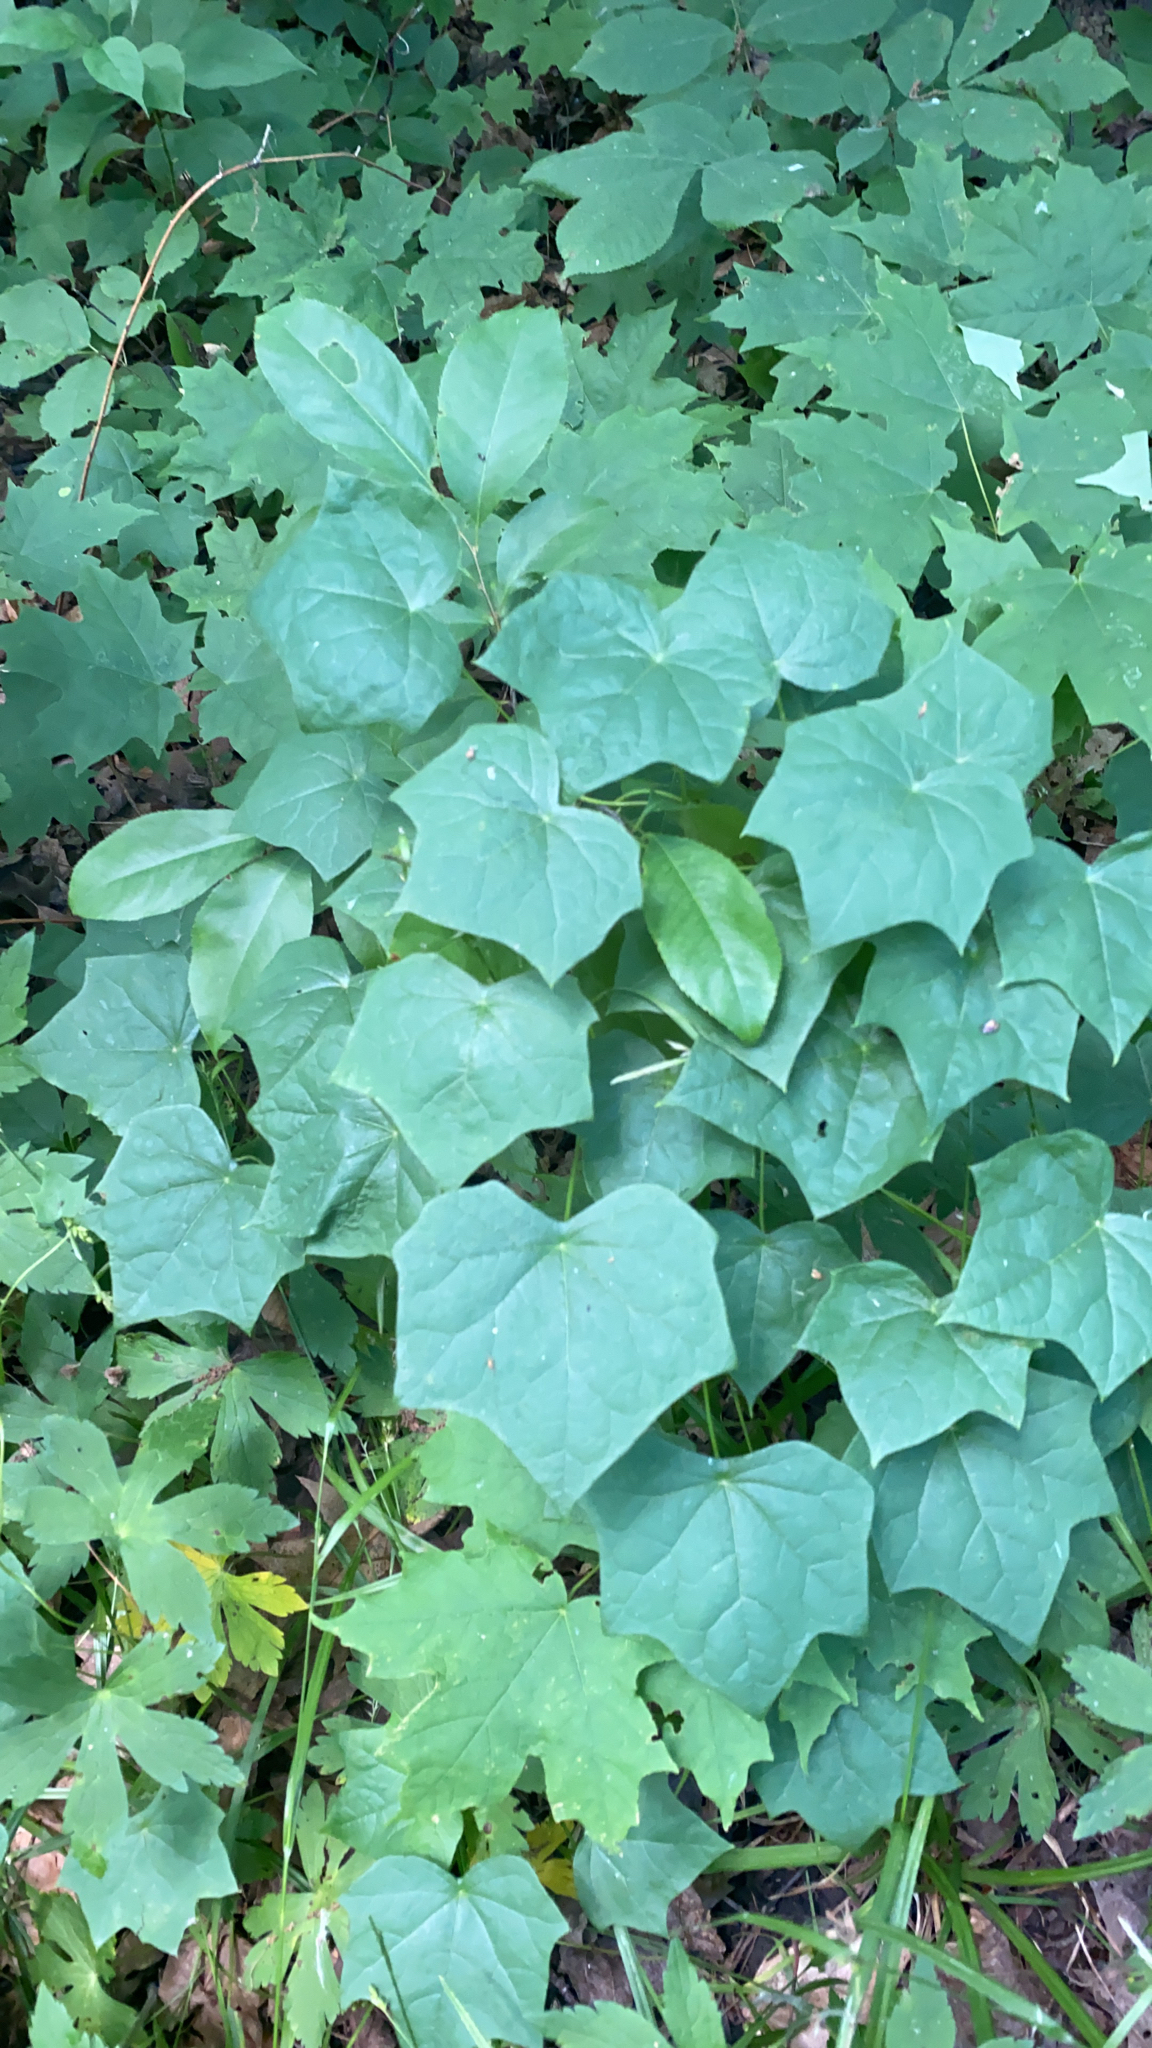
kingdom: Plantae
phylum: Tracheophyta
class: Magnoliopsida
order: Ranunculales
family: Menispermaceae
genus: Menispermum
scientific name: Menispermum canadense
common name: Moonseed
